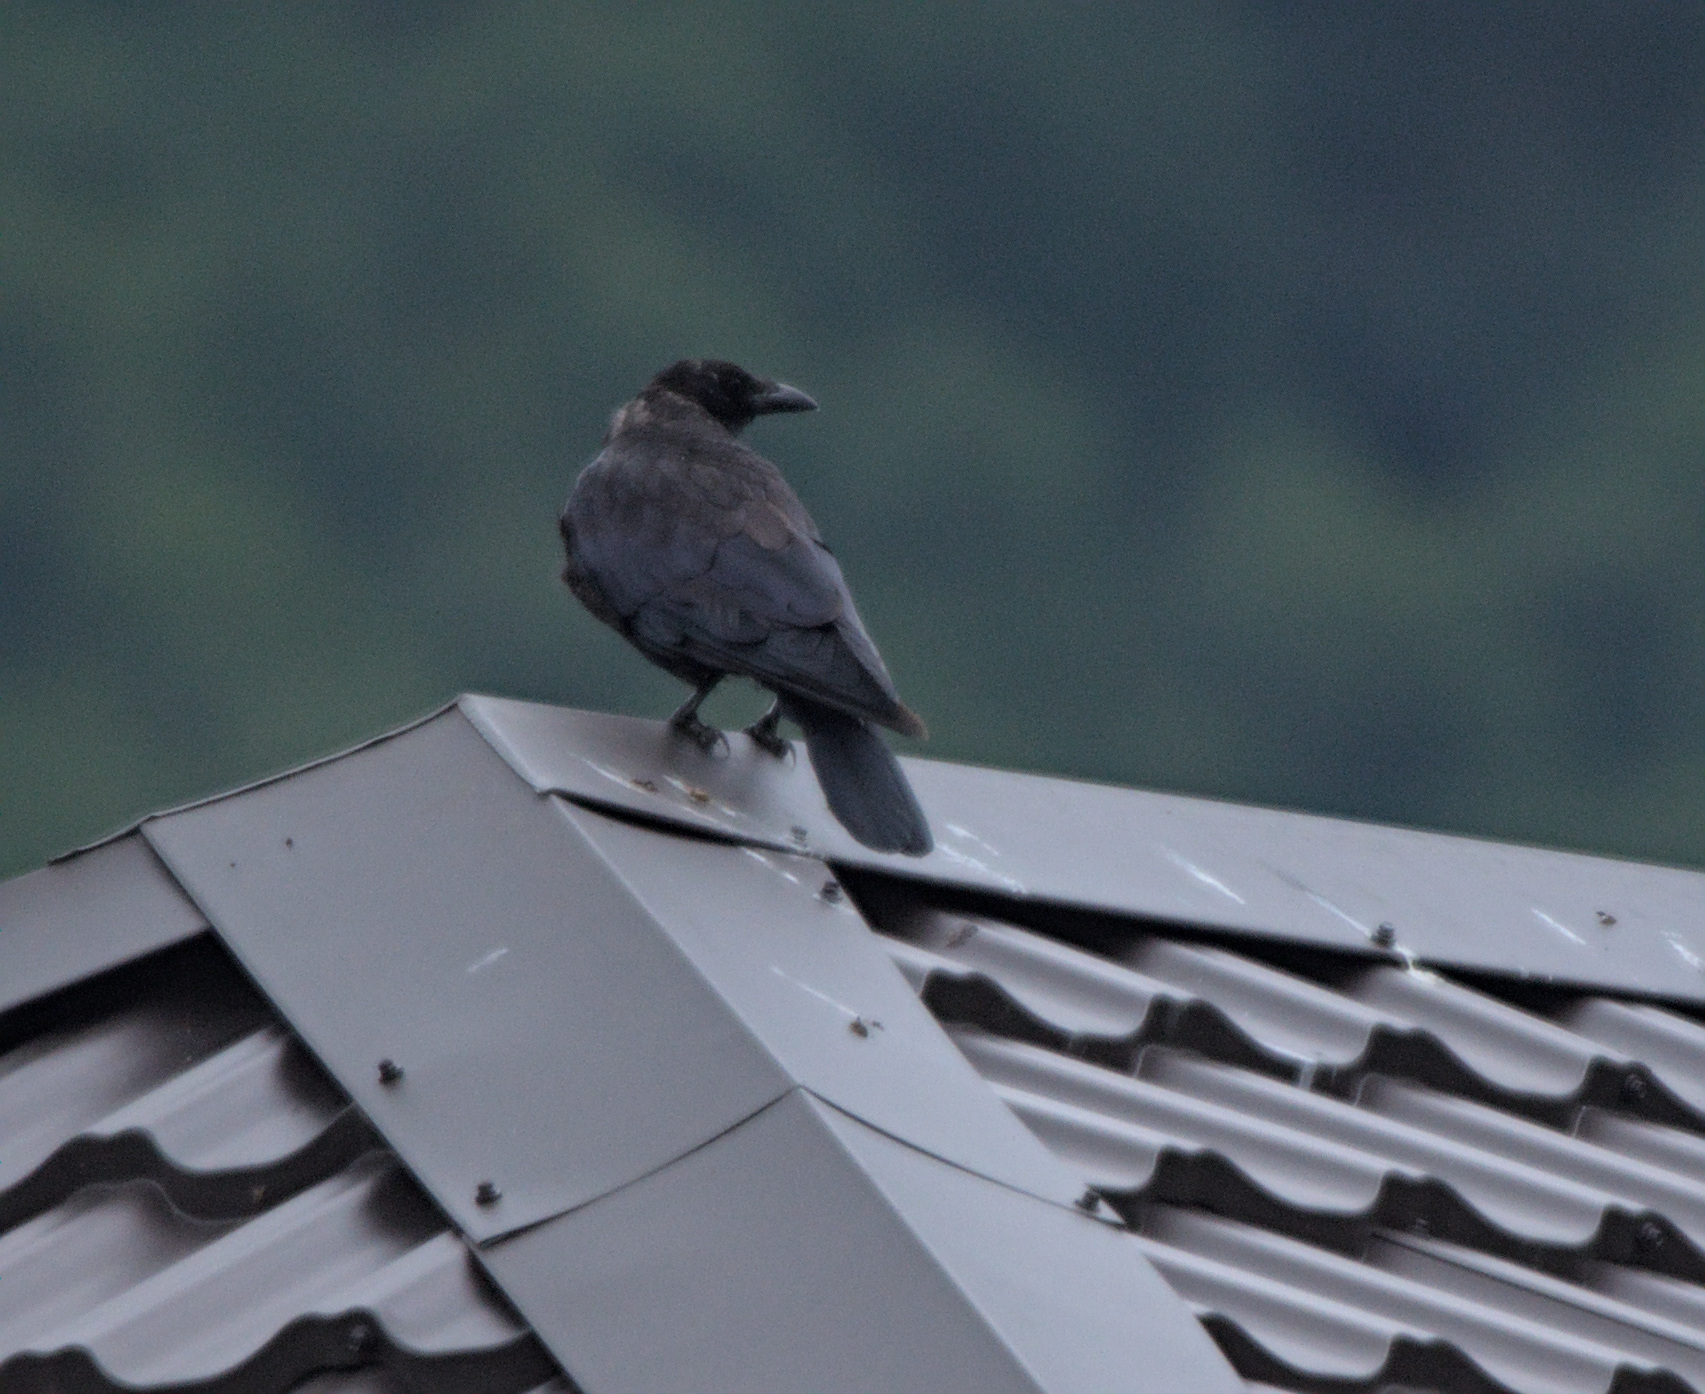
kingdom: Animalia
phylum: Chordata
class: Aves
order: Passeriformes
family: Corvidae
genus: Corvus
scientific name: Corvus corone
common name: Carrion crow
